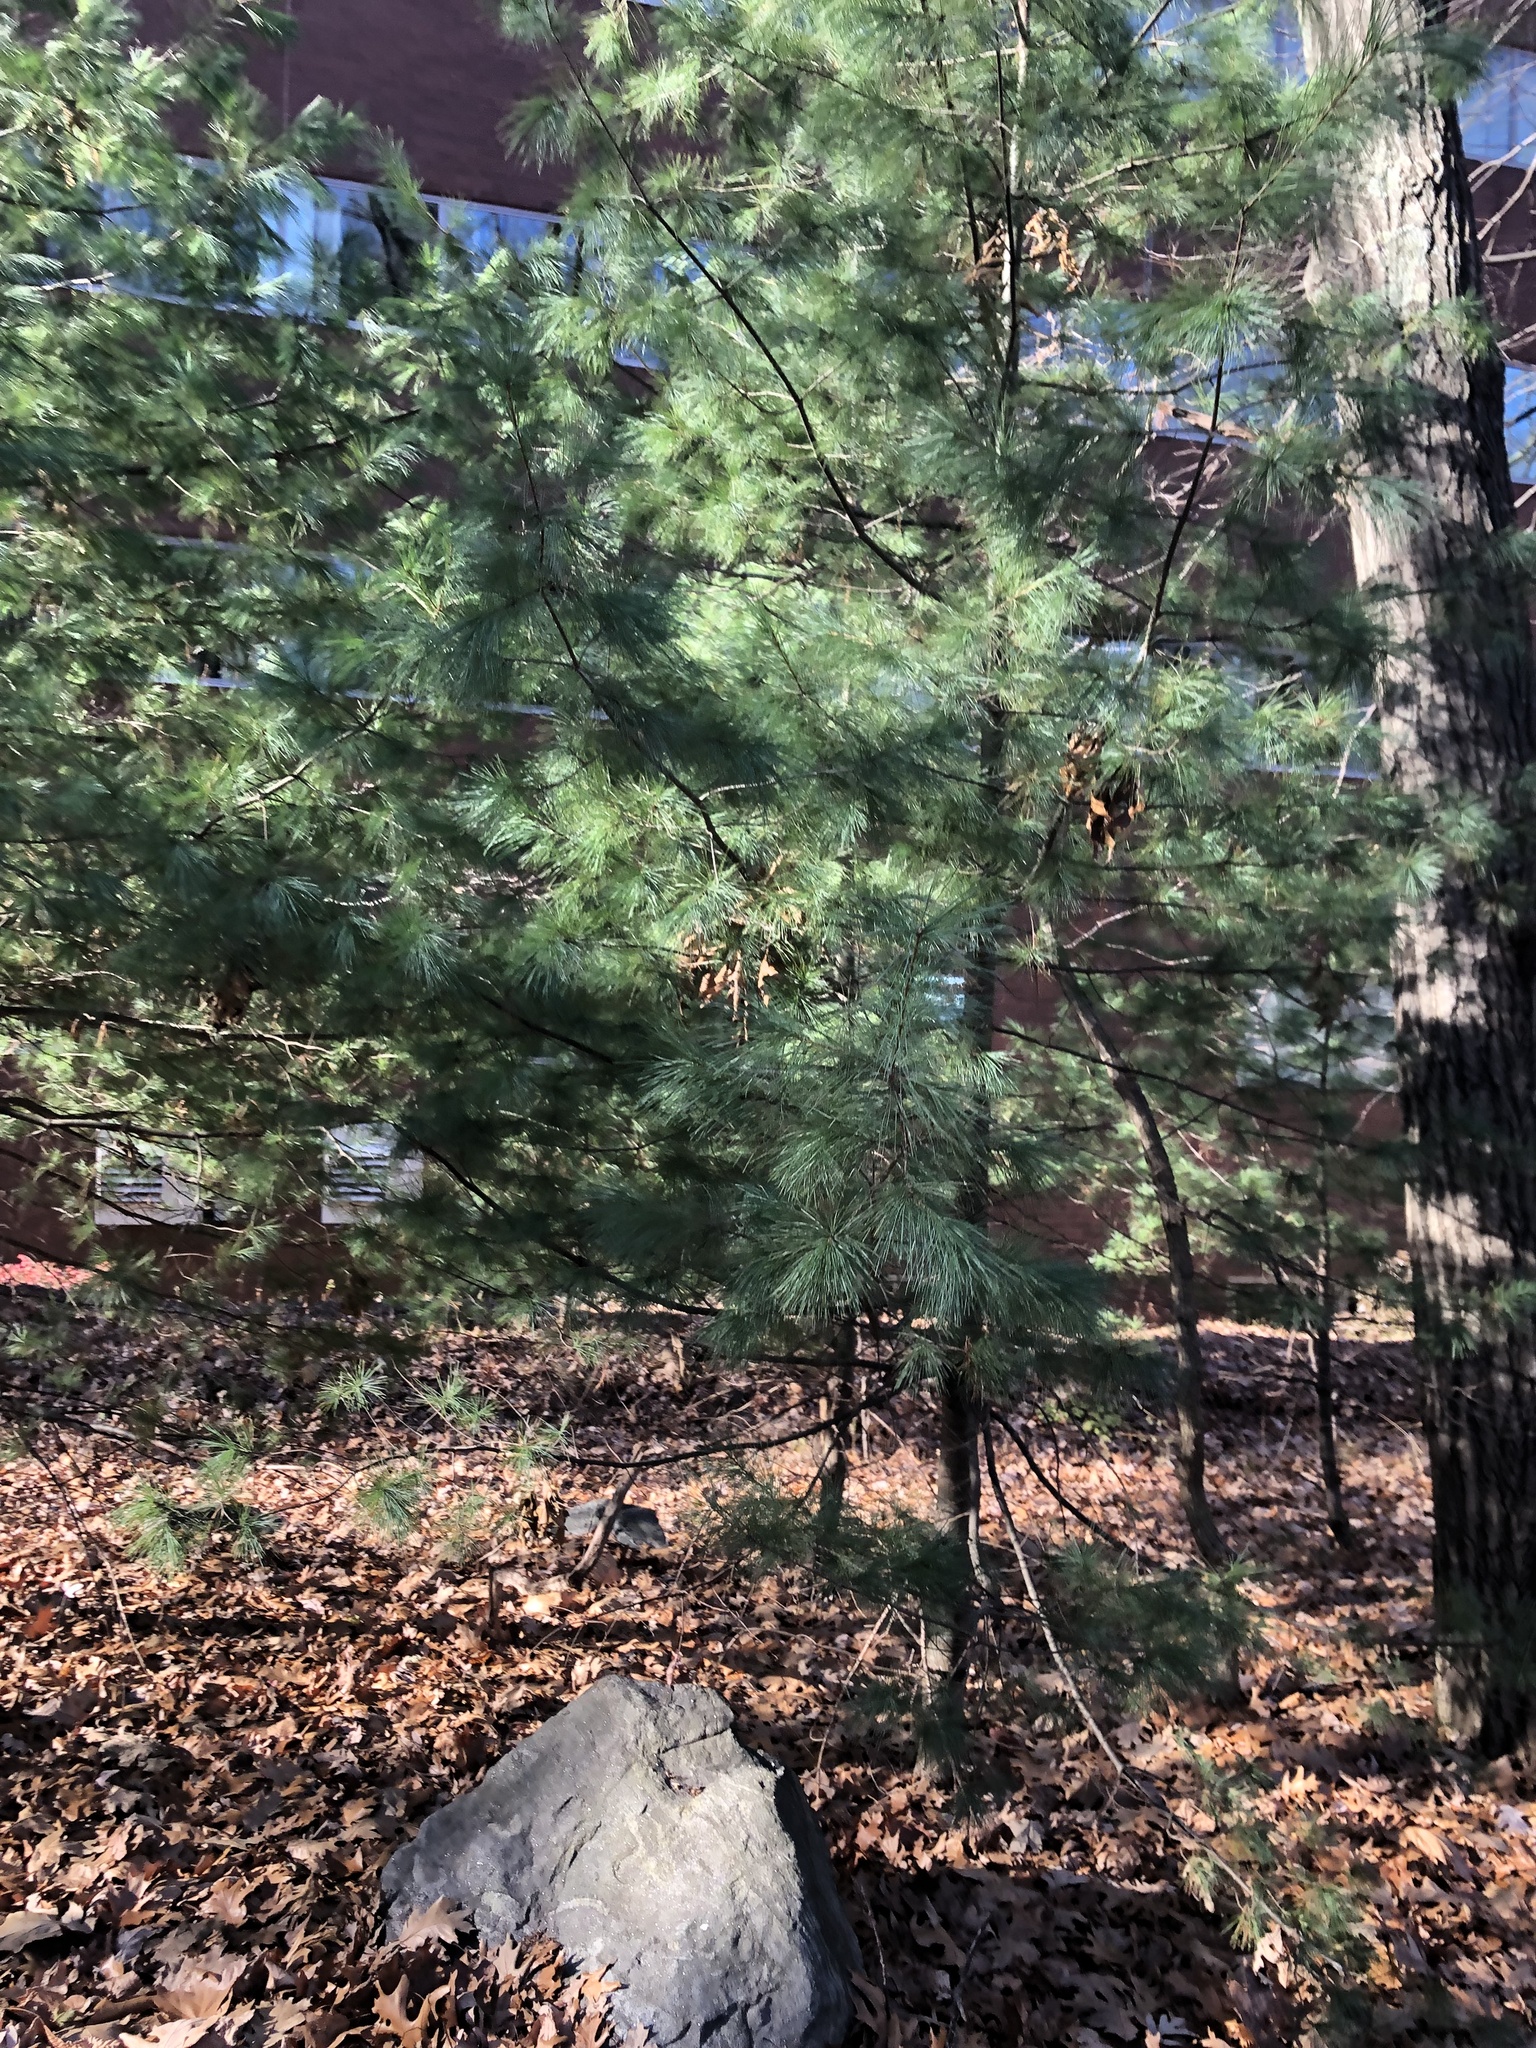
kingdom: Plantae
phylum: Tracheophyta
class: Pinopsida
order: Pinales
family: Pinaceae
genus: Pinus
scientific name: Pinus strobus
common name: Weymouth pine
